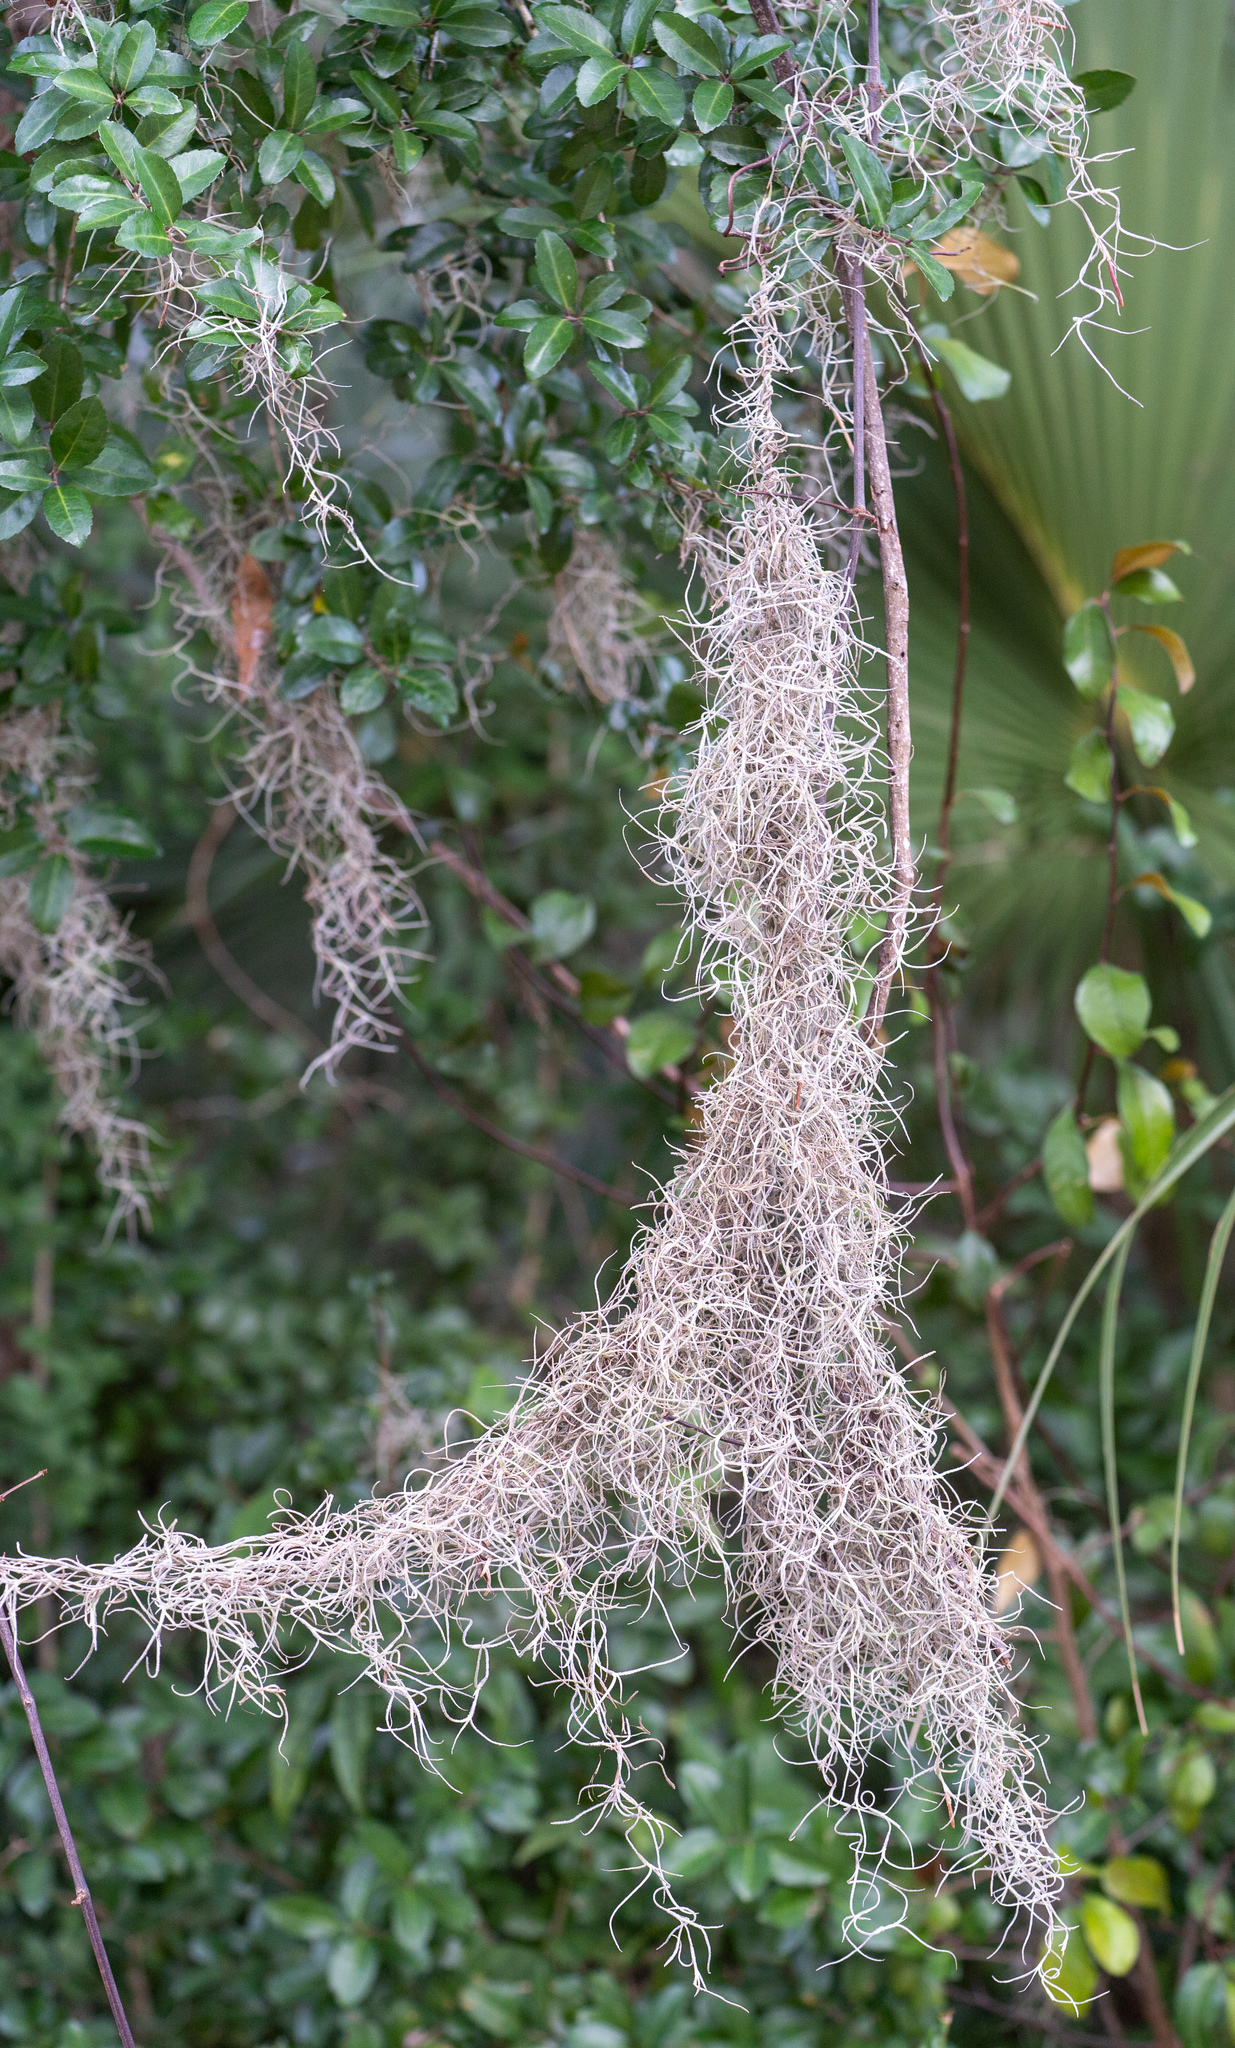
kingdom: Plantae
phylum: Tracheophyta
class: Liliopsida
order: Poales
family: Bromeliaceae
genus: Tillandsia
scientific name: Tillandsia usneoides
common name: Spanish moss
